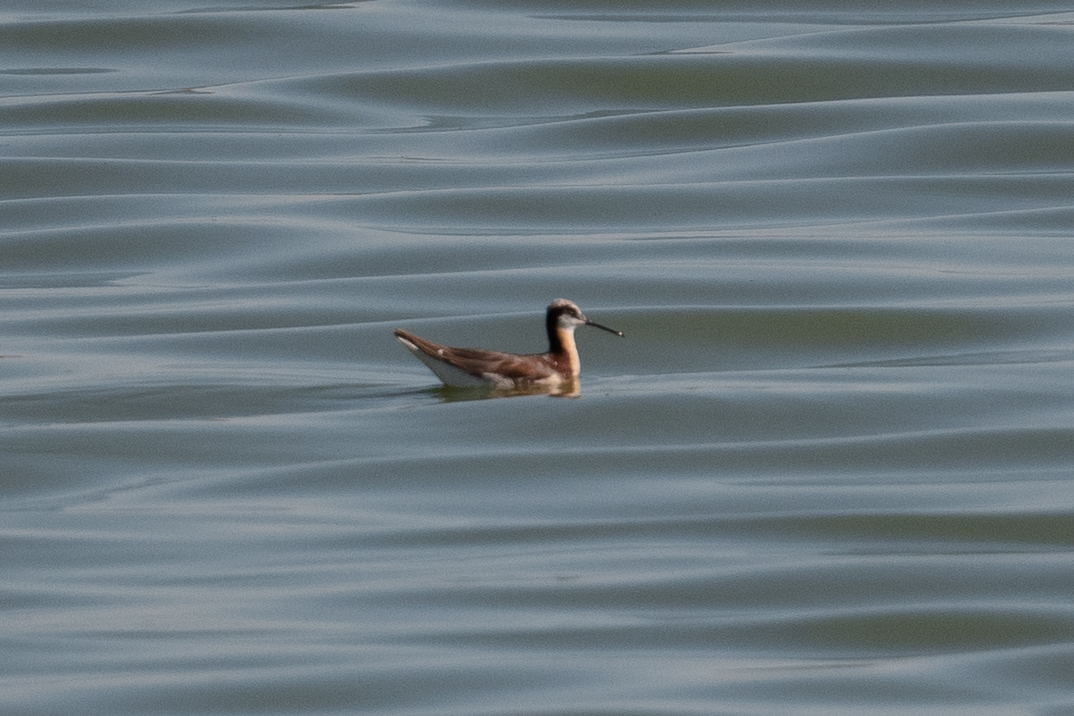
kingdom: Animalia
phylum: Chordata
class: Aves
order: Charadriiformes
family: Scolopacidae
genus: Phalaropus
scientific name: Phalaropus tricolor
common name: Wilson's phalarope
